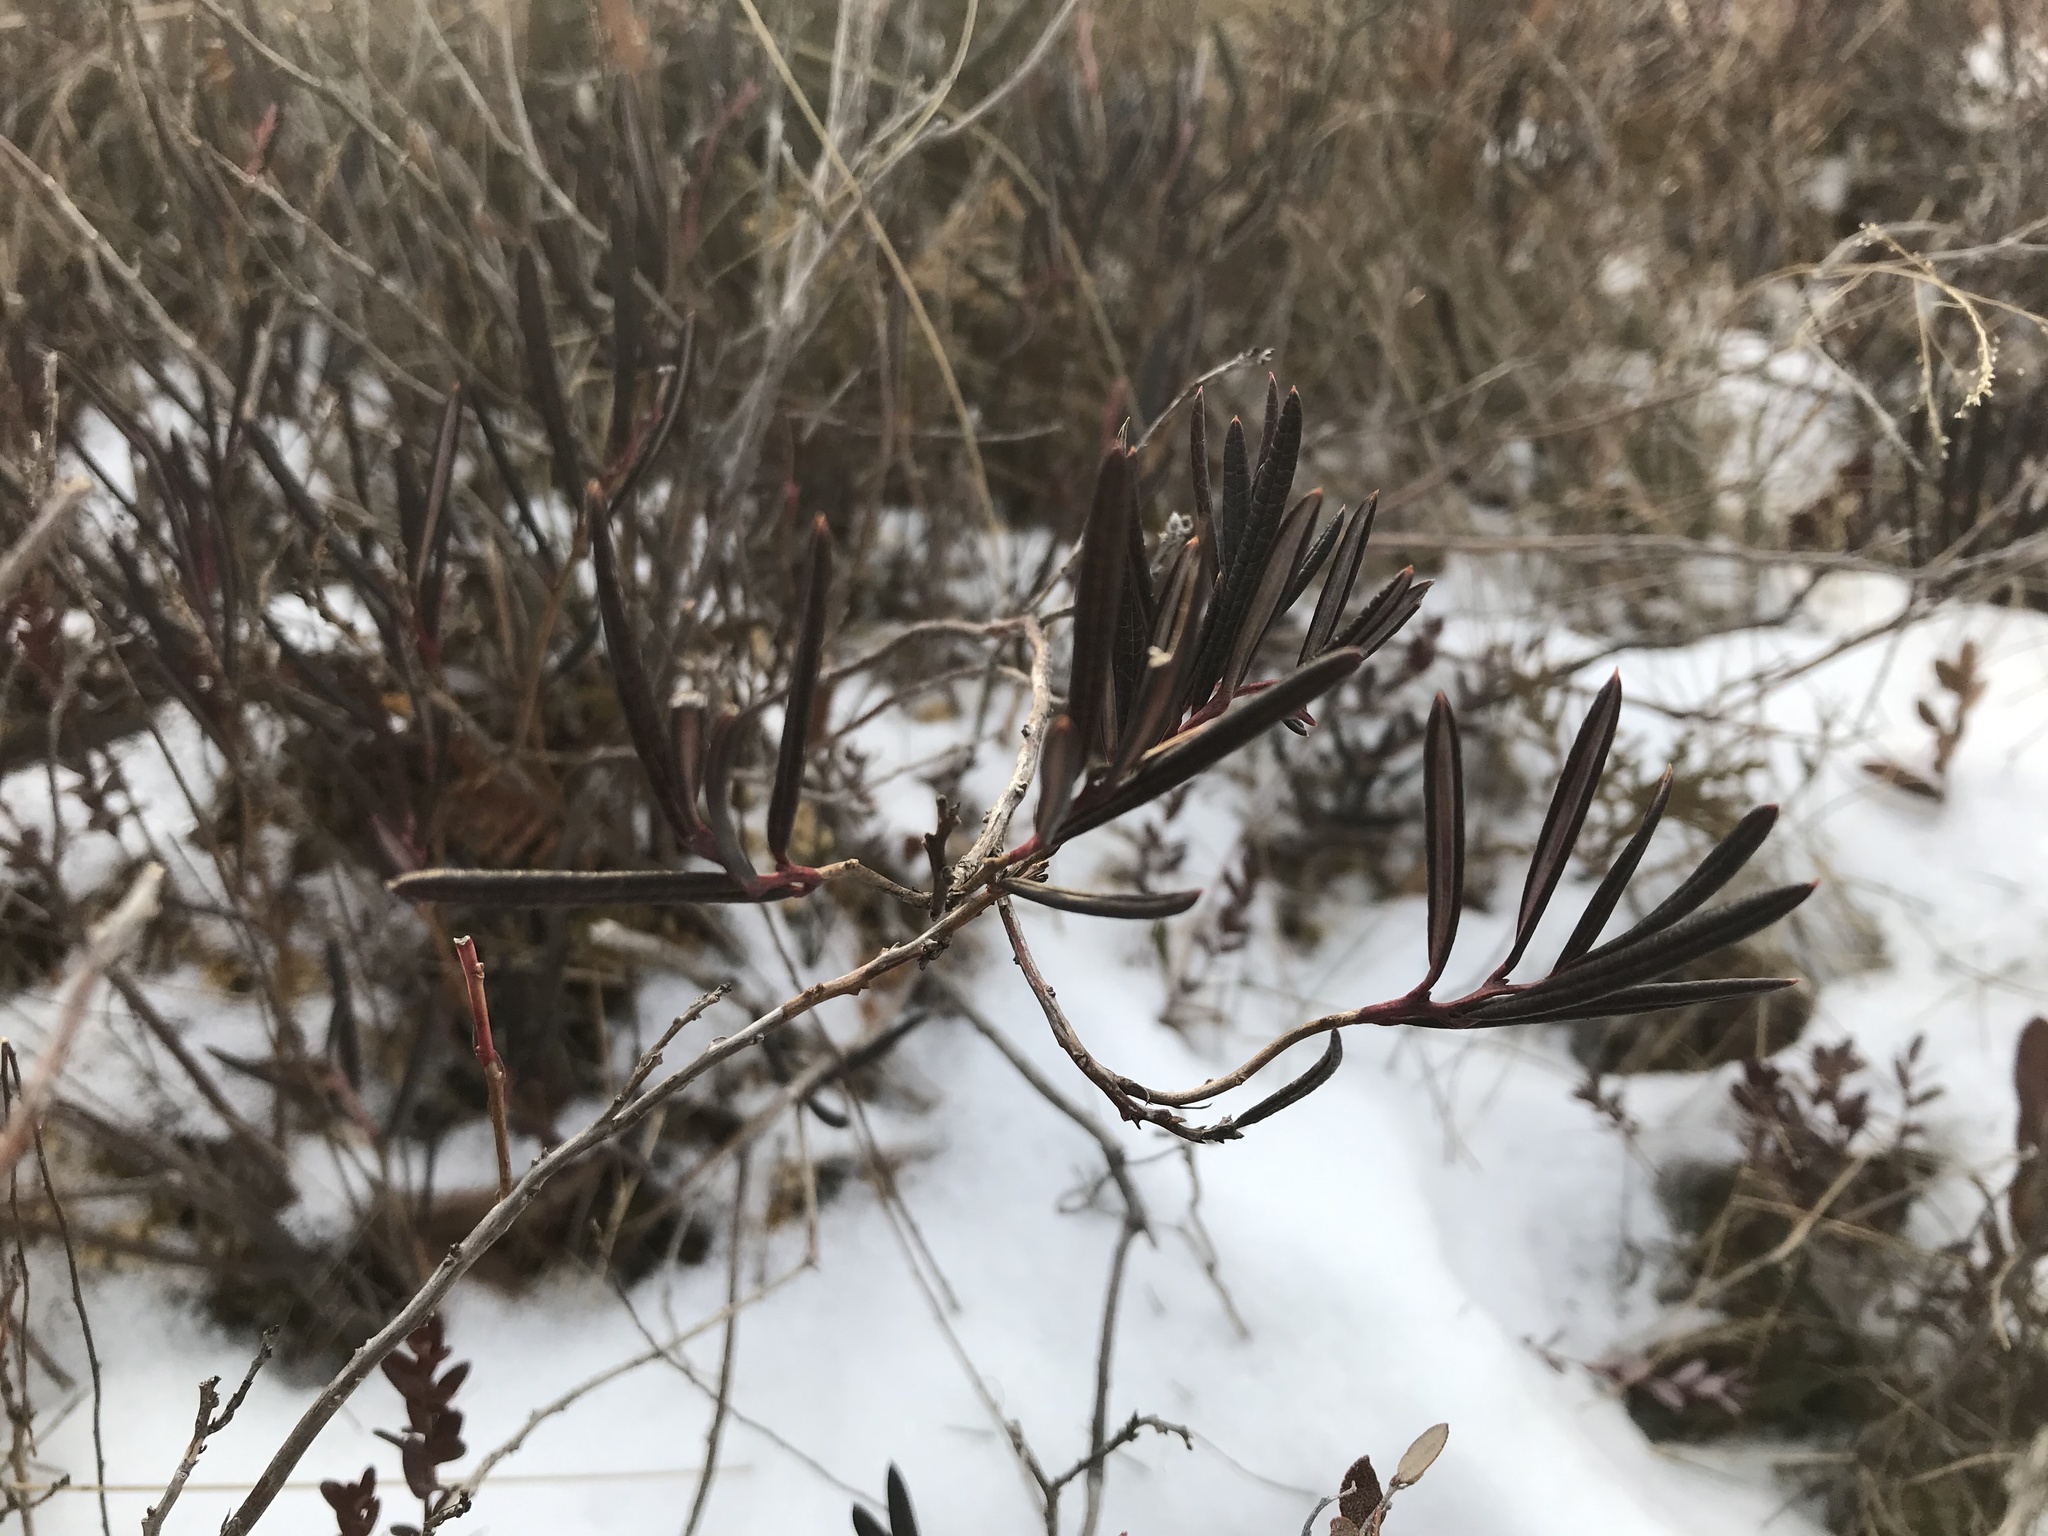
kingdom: Plantae
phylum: Tracheophyta
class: Magnoliopsida
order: Ericales
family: Ericaceae
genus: Andromeda
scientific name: Andromeda polifolia
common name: Bog-rosemary
